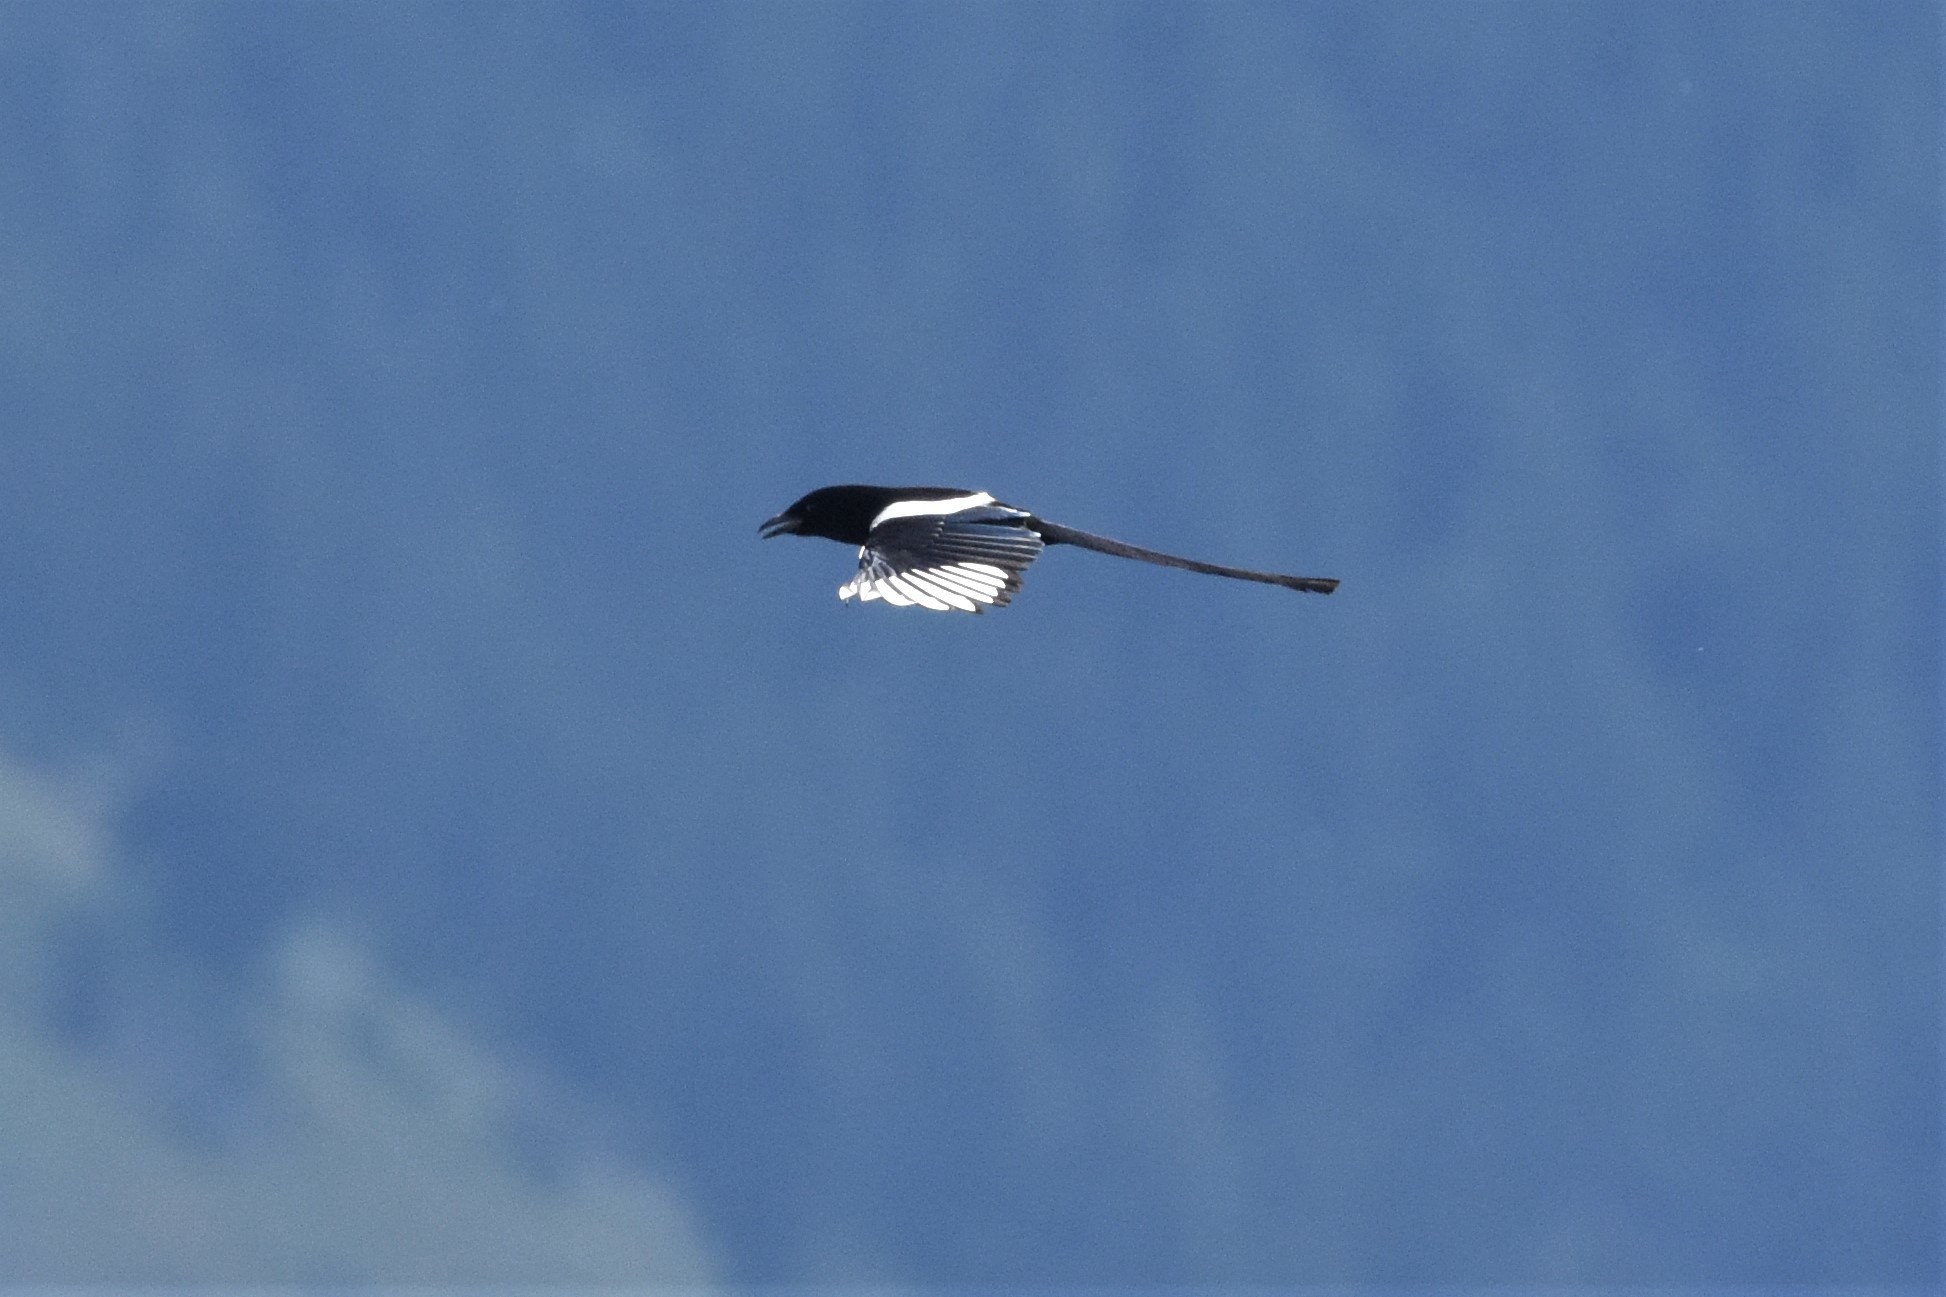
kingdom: Animalia
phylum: Chordata
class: Aves
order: Passeriformes
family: Corvidae
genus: Pica
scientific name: Pica hudsonia
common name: Black-billed magpie
